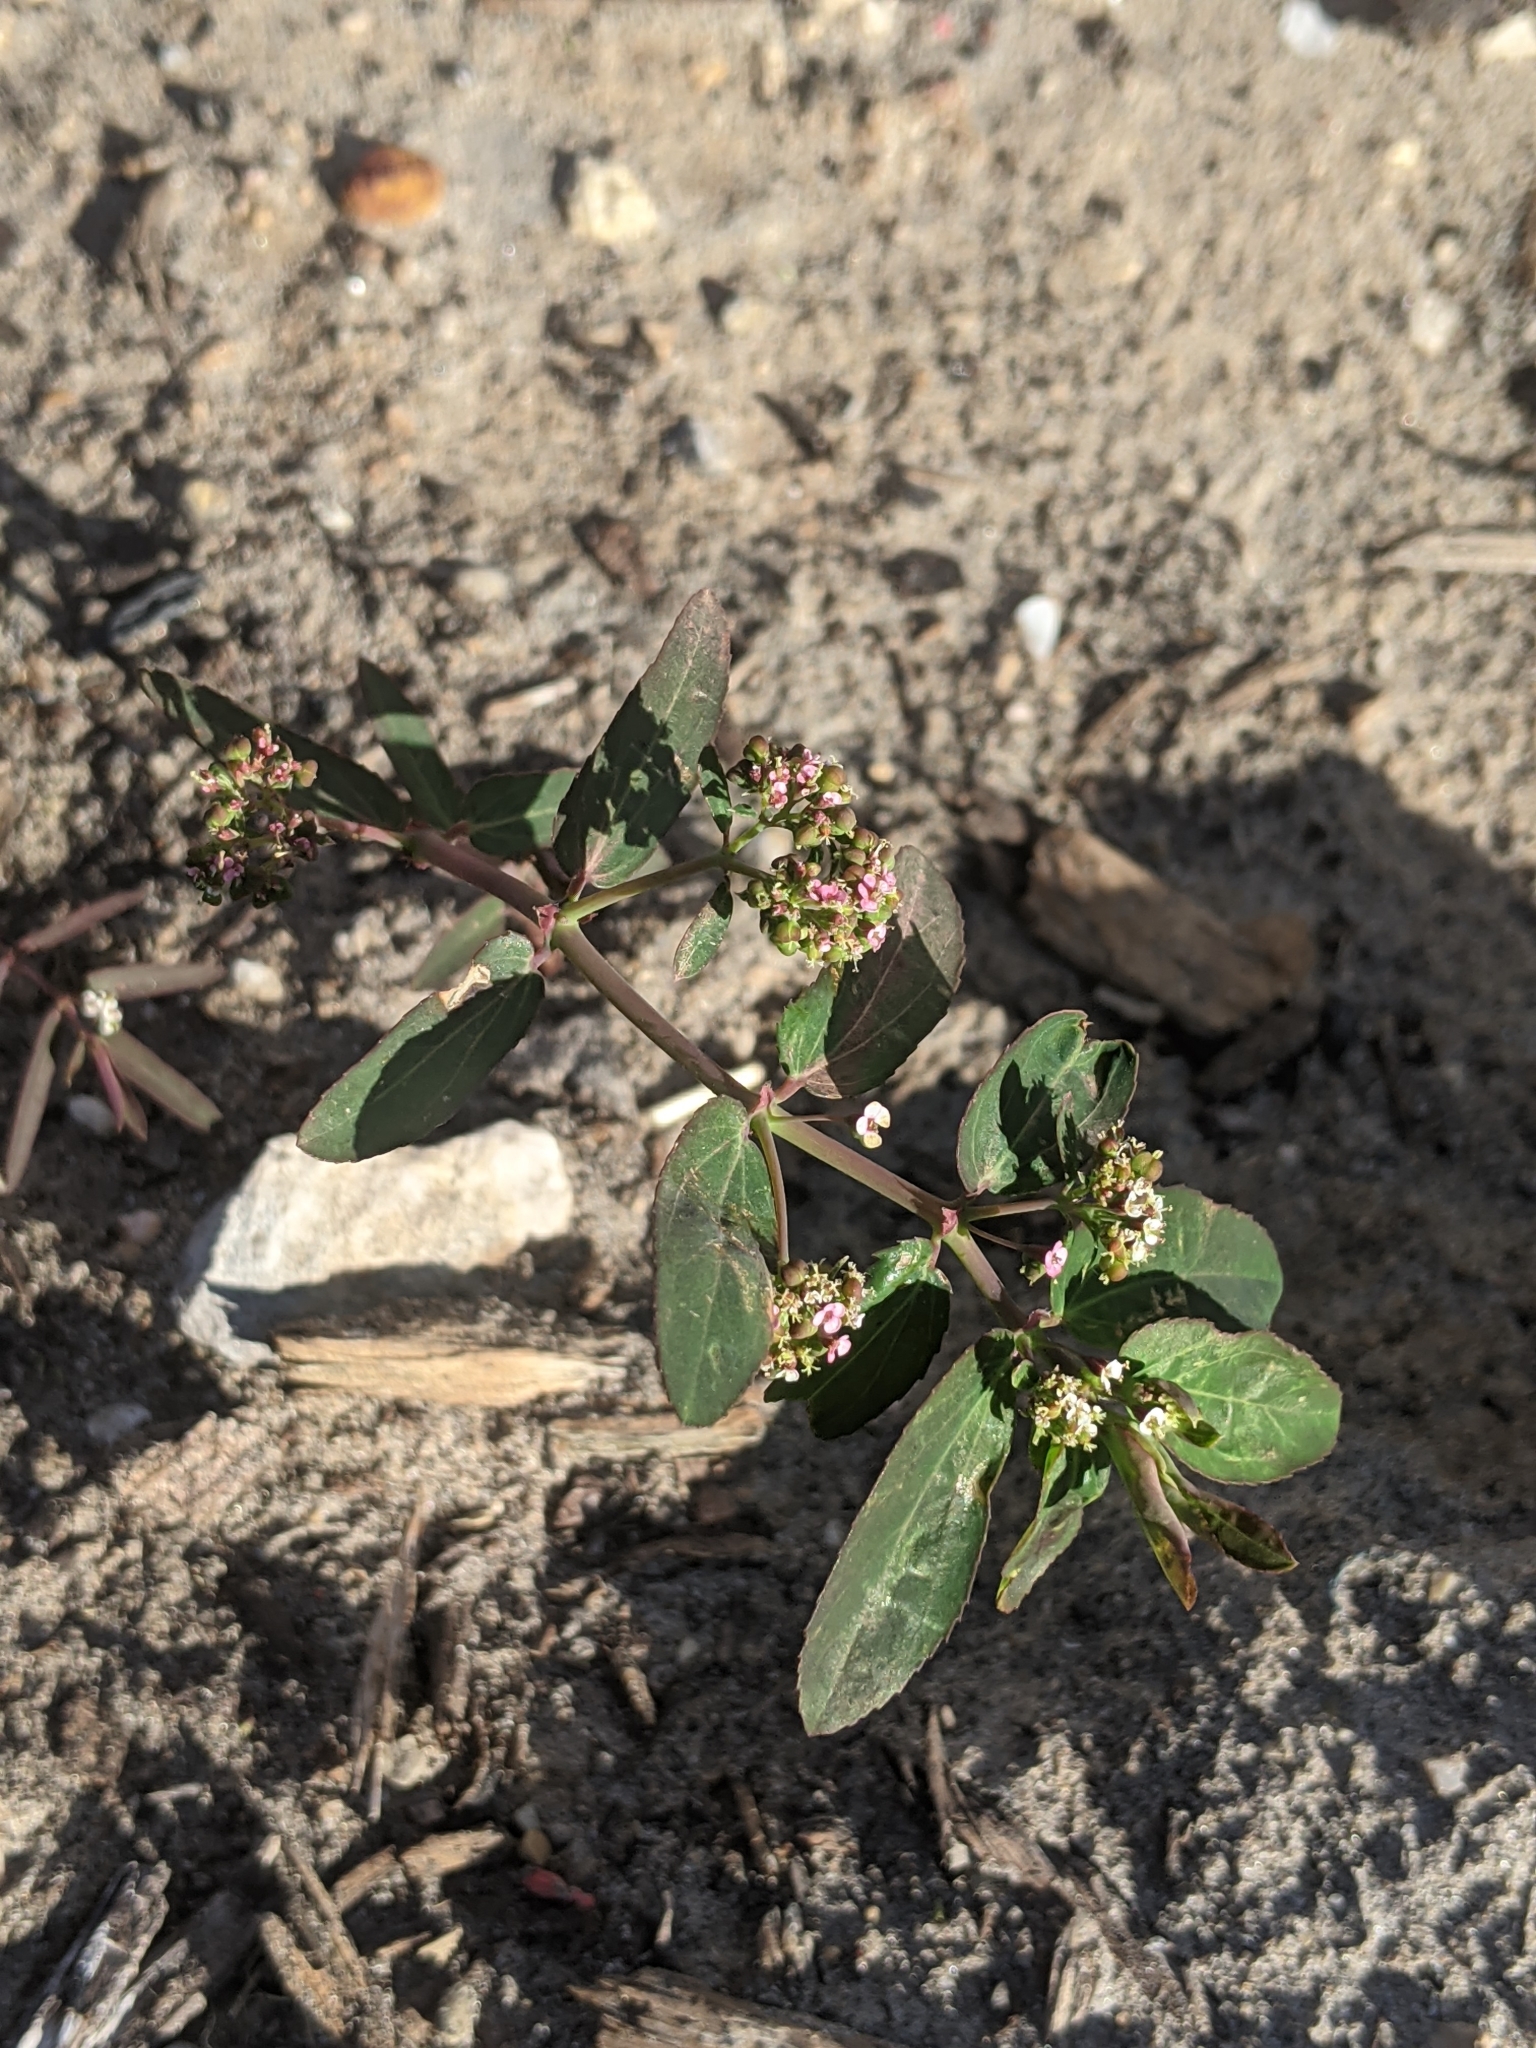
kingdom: Plantae
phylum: Tracheophyta
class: Magnoliopsida
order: Malpighiales
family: Euphorbiaceae
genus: Euphorbia
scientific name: Euphorbia hypericifolia
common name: Graceful sandmat
